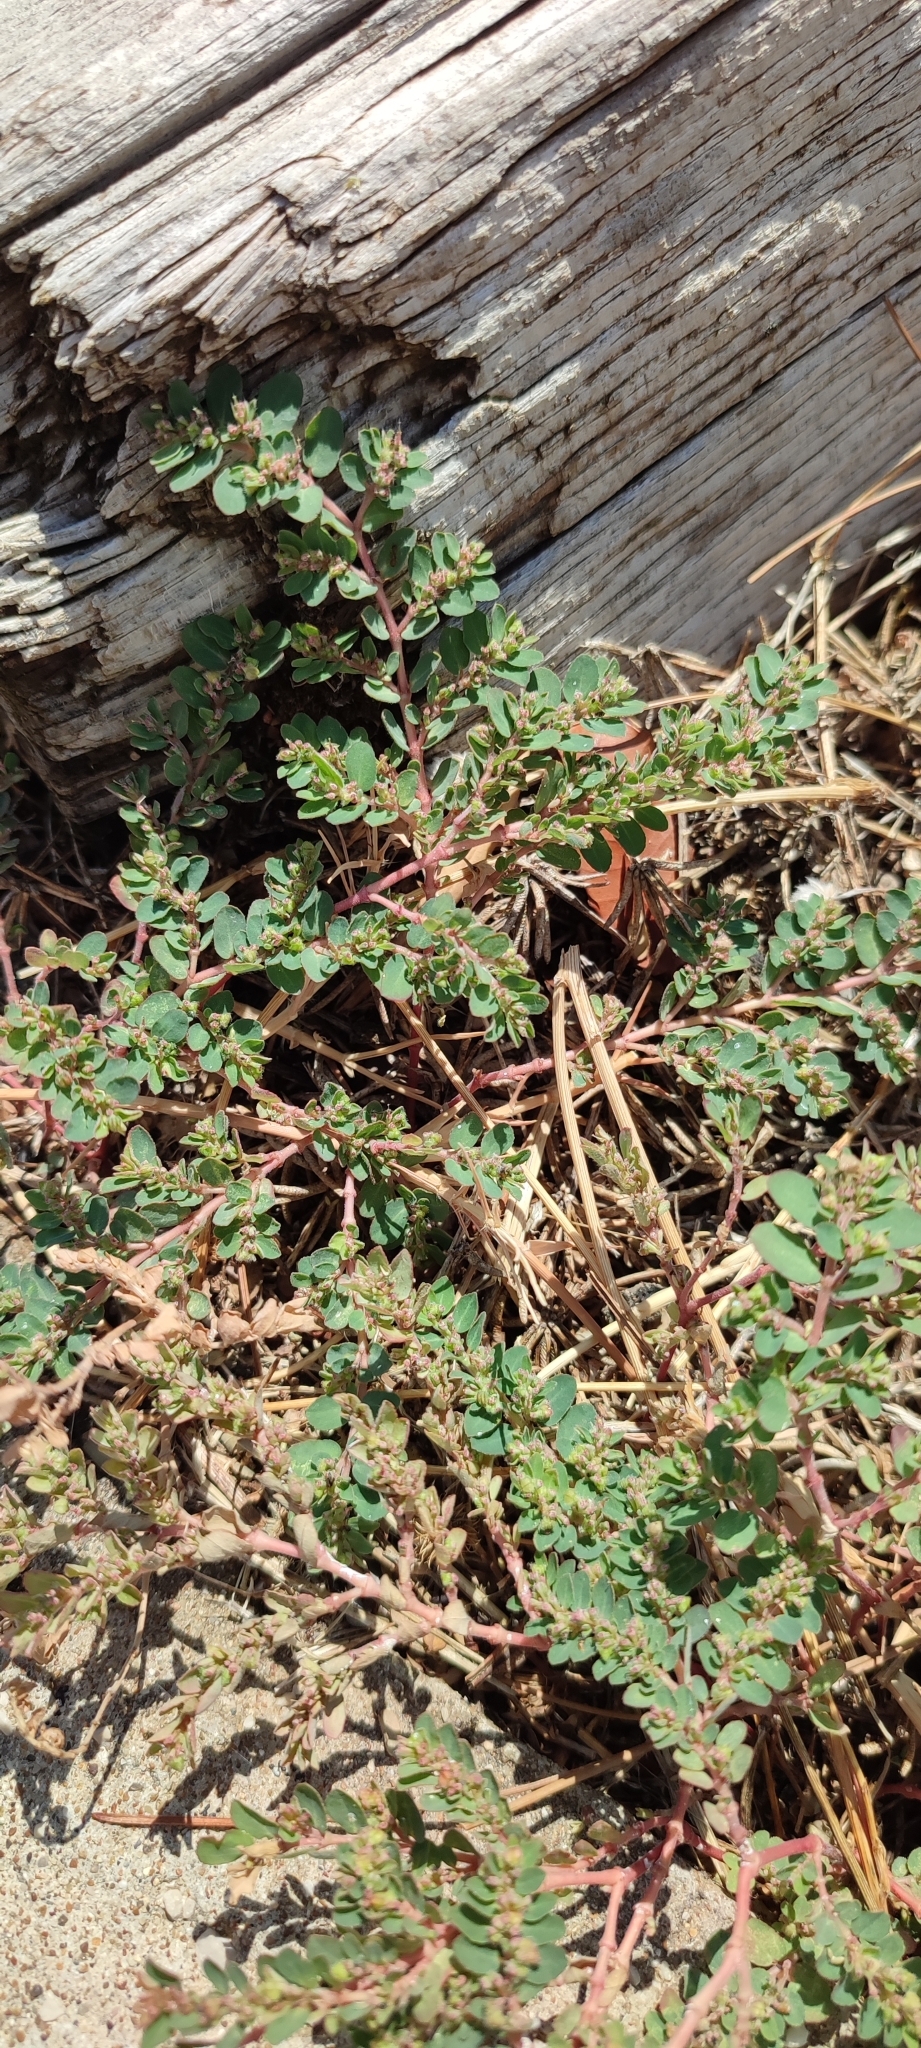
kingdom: Plantae
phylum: Tracheophyta
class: Magnoliopsida
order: Malpighiales
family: Euphorbiaceae
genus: Euphorbia
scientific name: Euphorbia prostrata
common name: Prostrate sandmat
